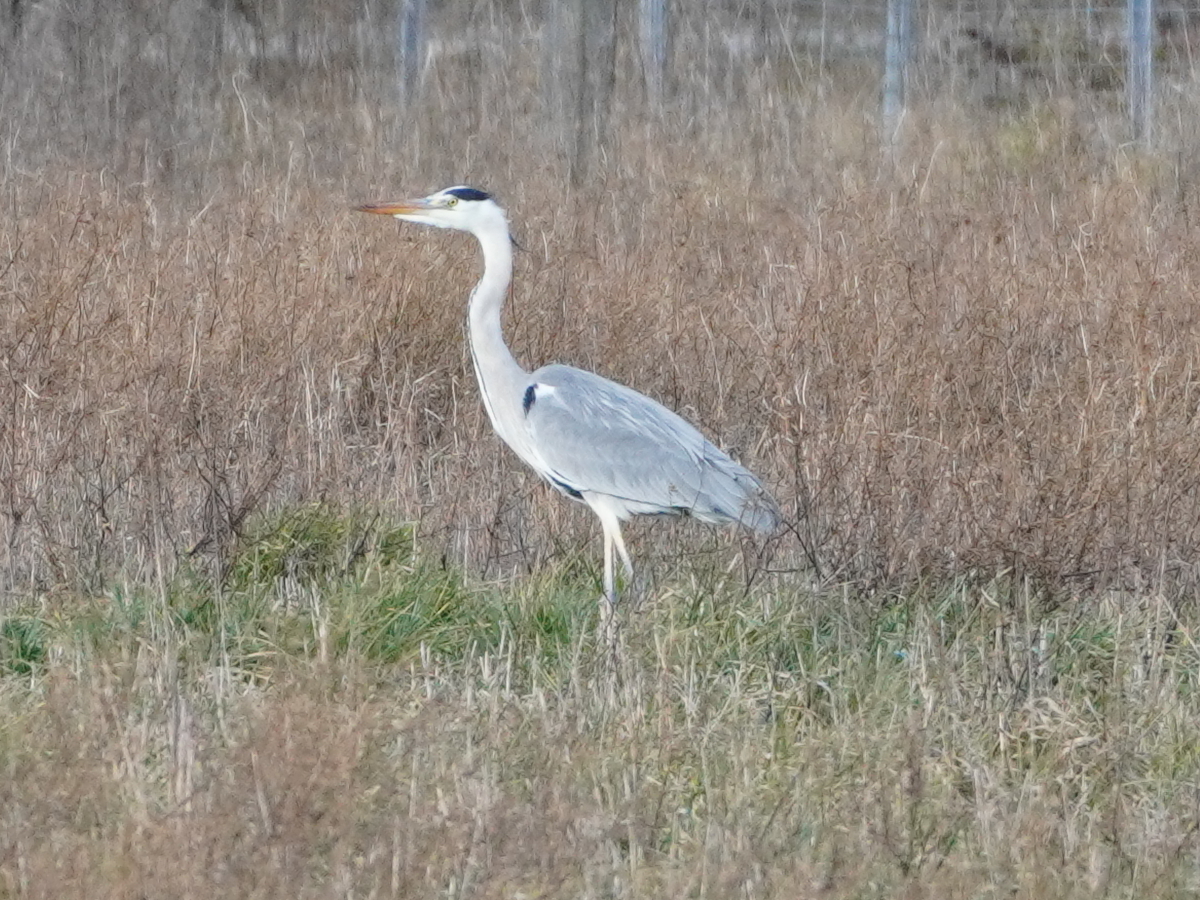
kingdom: Animalia
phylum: Chordata
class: Aves
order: Pelecaniformes
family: Ardeidae
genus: Ardea
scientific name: Ardea cinerea
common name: Grey heron
